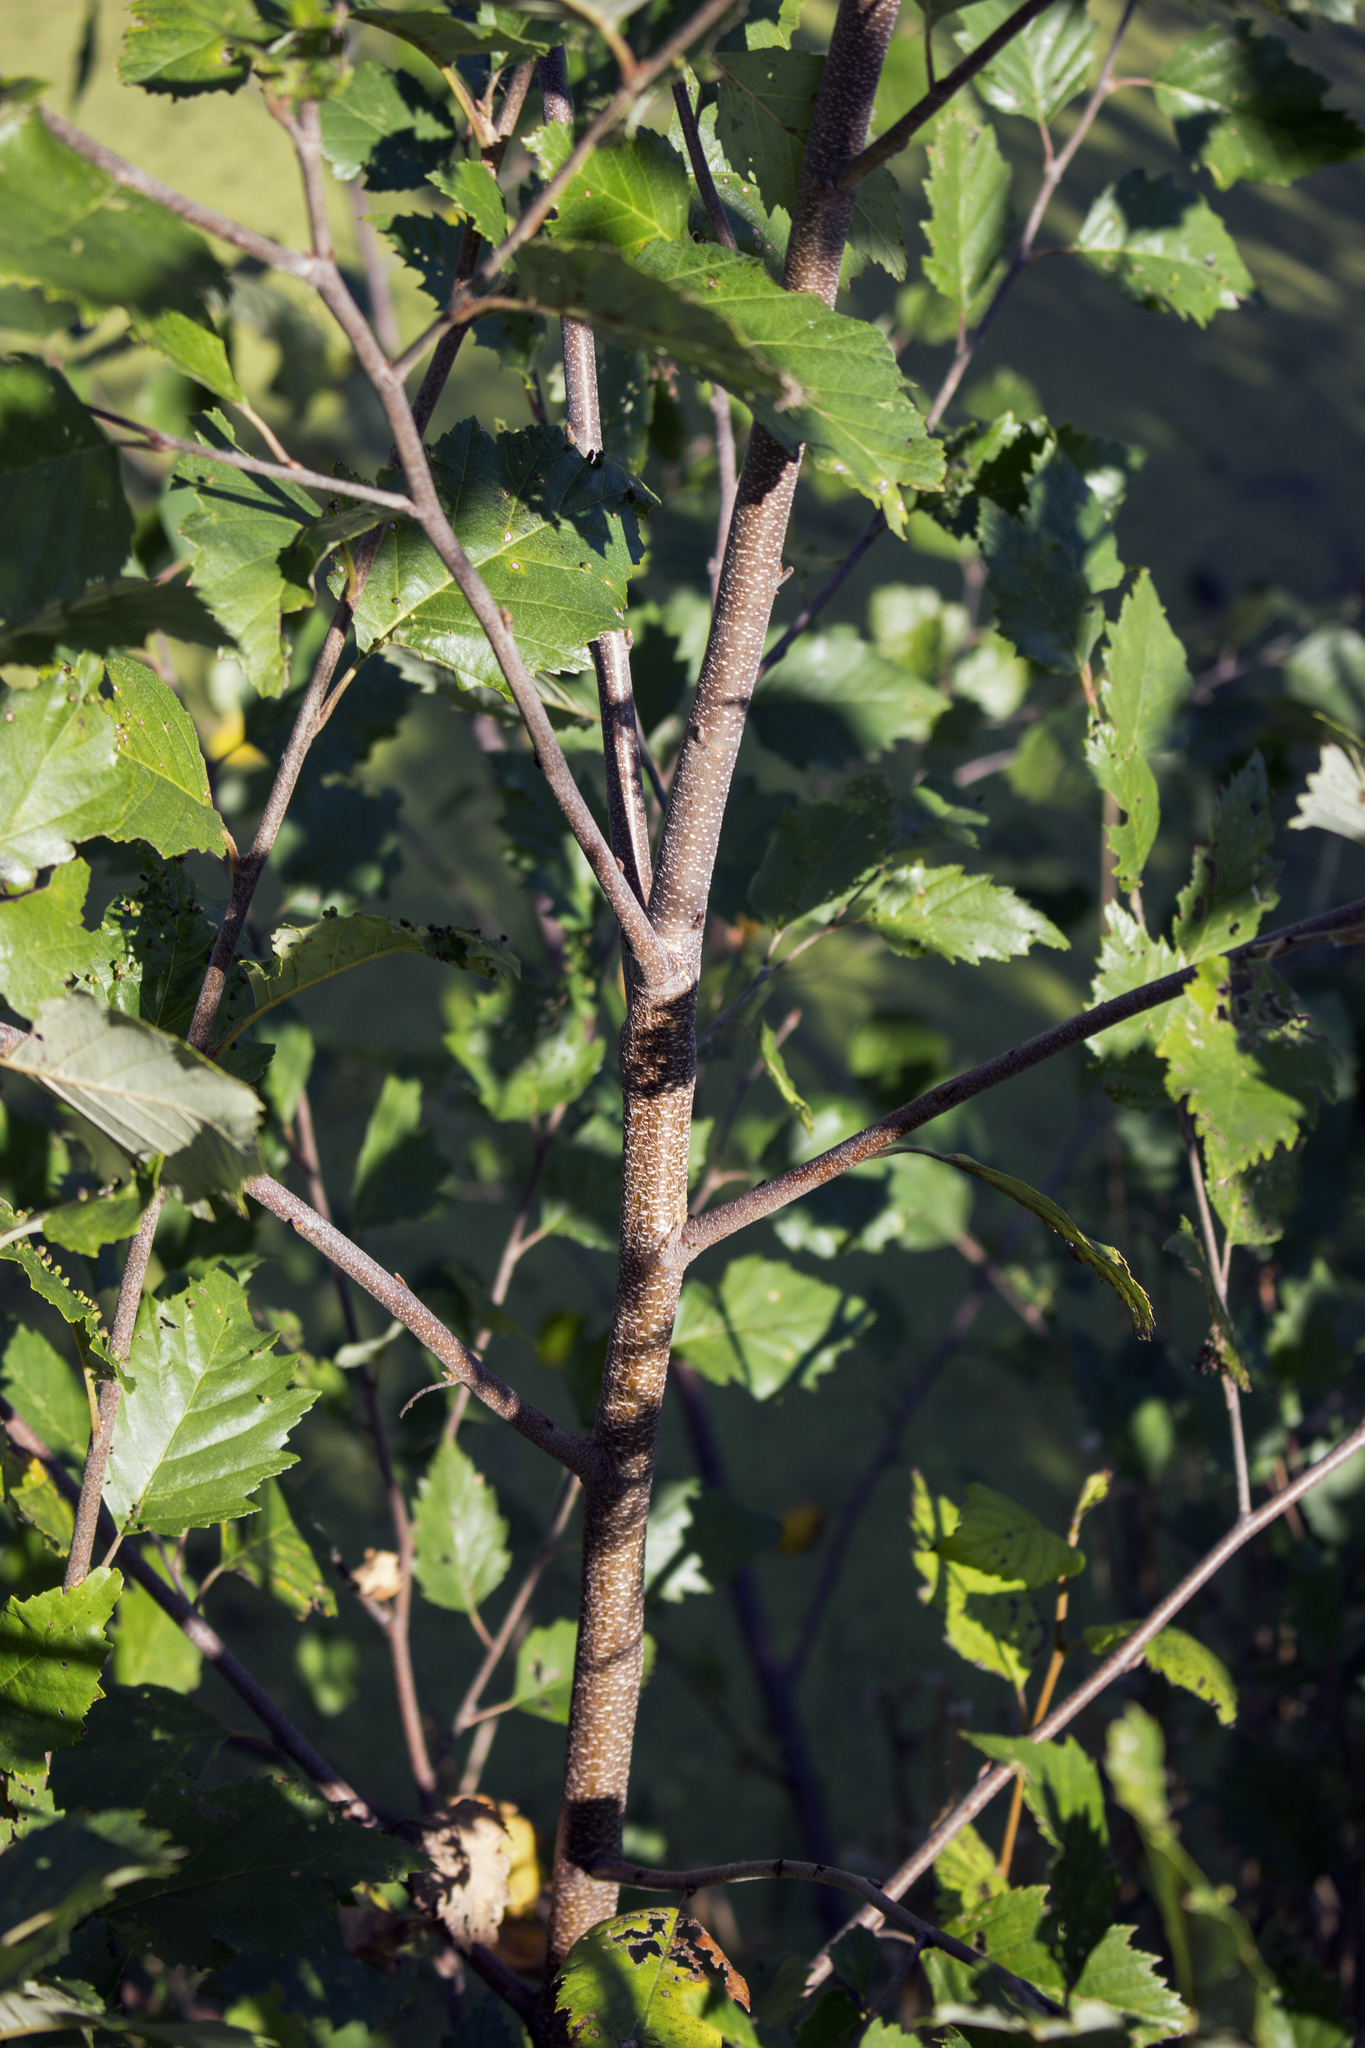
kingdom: Plantae
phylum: Tracheophyta
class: Magnoliopsida
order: Fagales
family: Betulaceae
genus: Betula
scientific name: Betula nigra
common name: Black birch
